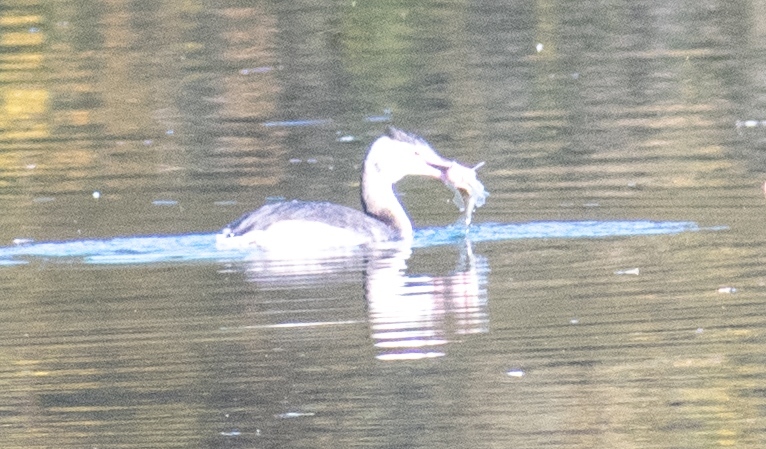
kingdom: Animalia
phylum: Chordata
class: Aves
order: Podicipediformes
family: Podicipedidae
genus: Podiceps
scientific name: Podiceps cristatus
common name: Great crested grebe
